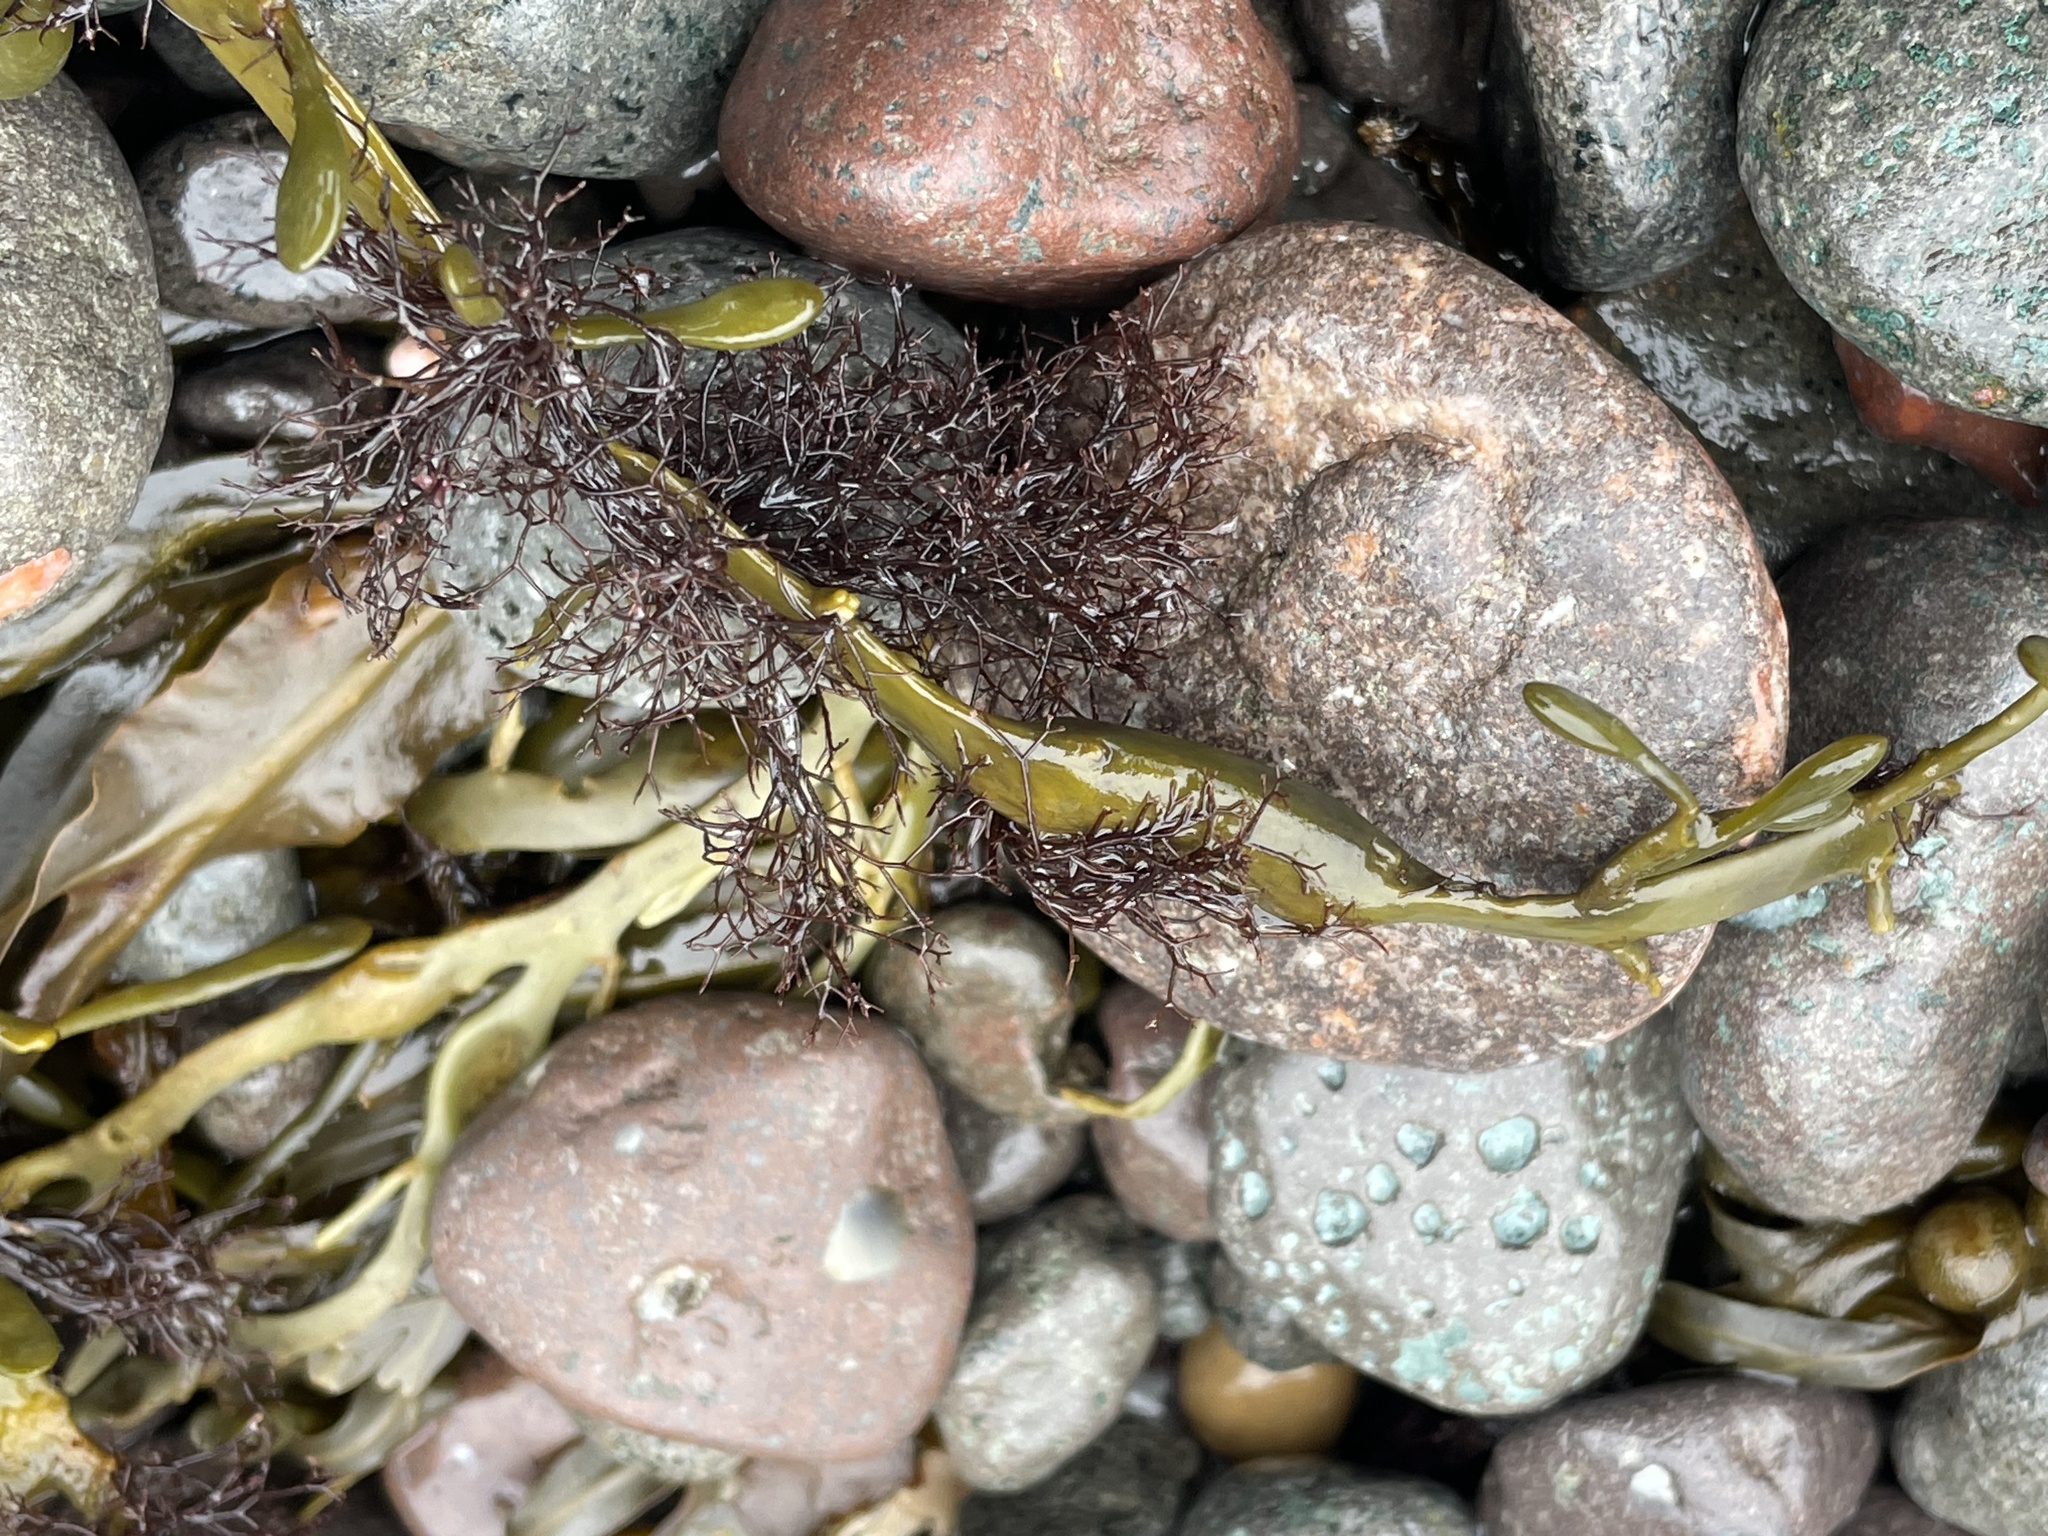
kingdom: Plantae
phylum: Rhodophyta
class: Florideophyceae
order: Ceramiales
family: Rhodomelaceae
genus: Vertebrata
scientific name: Vertebrata lanosa
